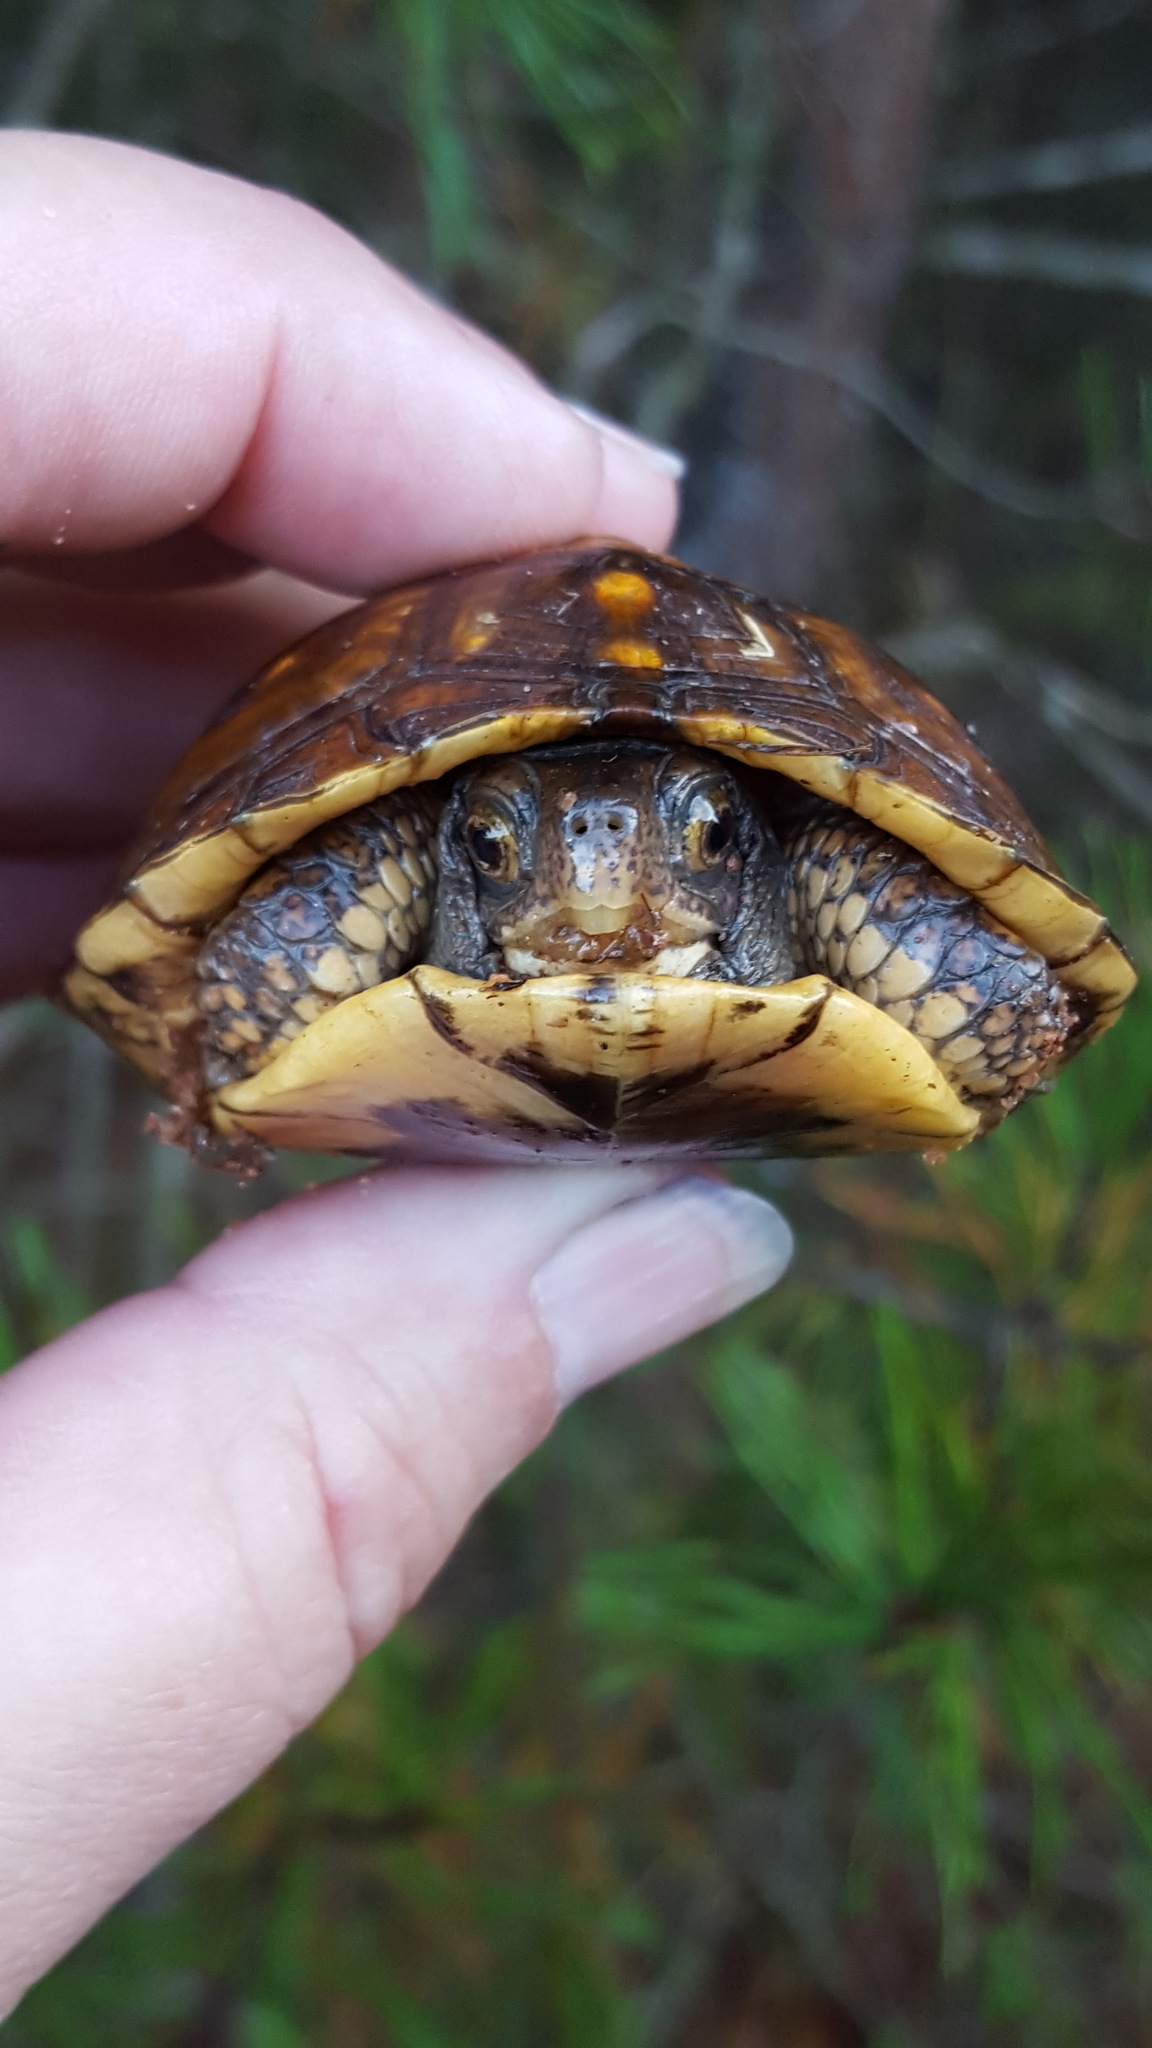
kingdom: Animalia
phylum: Chordata
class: Testudines
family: Emydidae
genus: Terrapene
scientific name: Terrapene carolina
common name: Common box turtle
